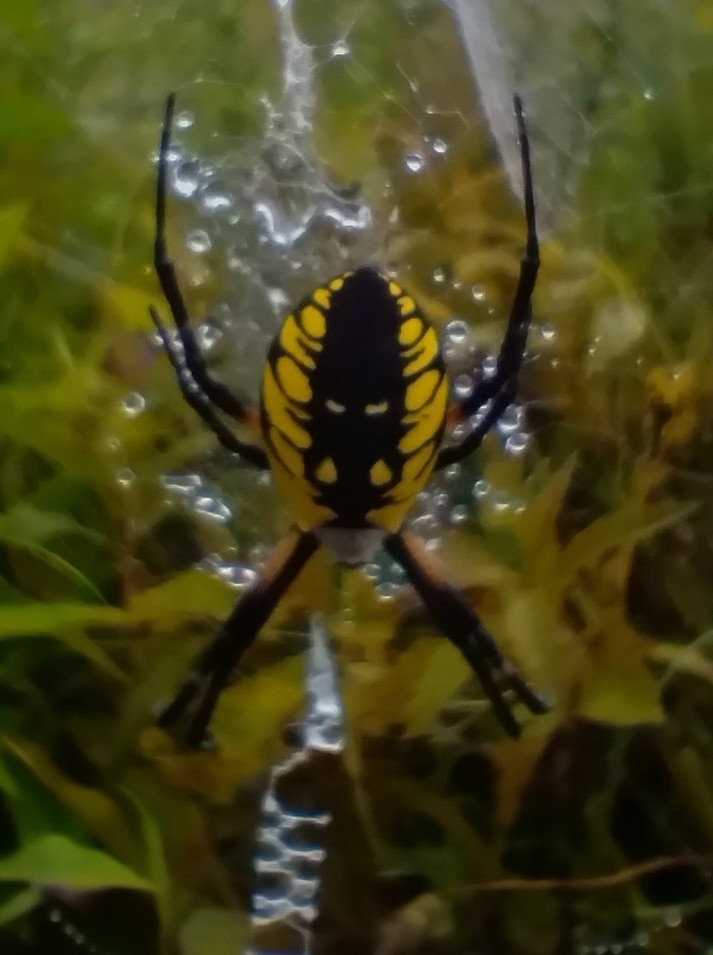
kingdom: Animalia
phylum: Arthropoda
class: Arachnida
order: Araneae
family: Araneidae
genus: Argiope
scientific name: Argiope aurantia
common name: Orb weavers
